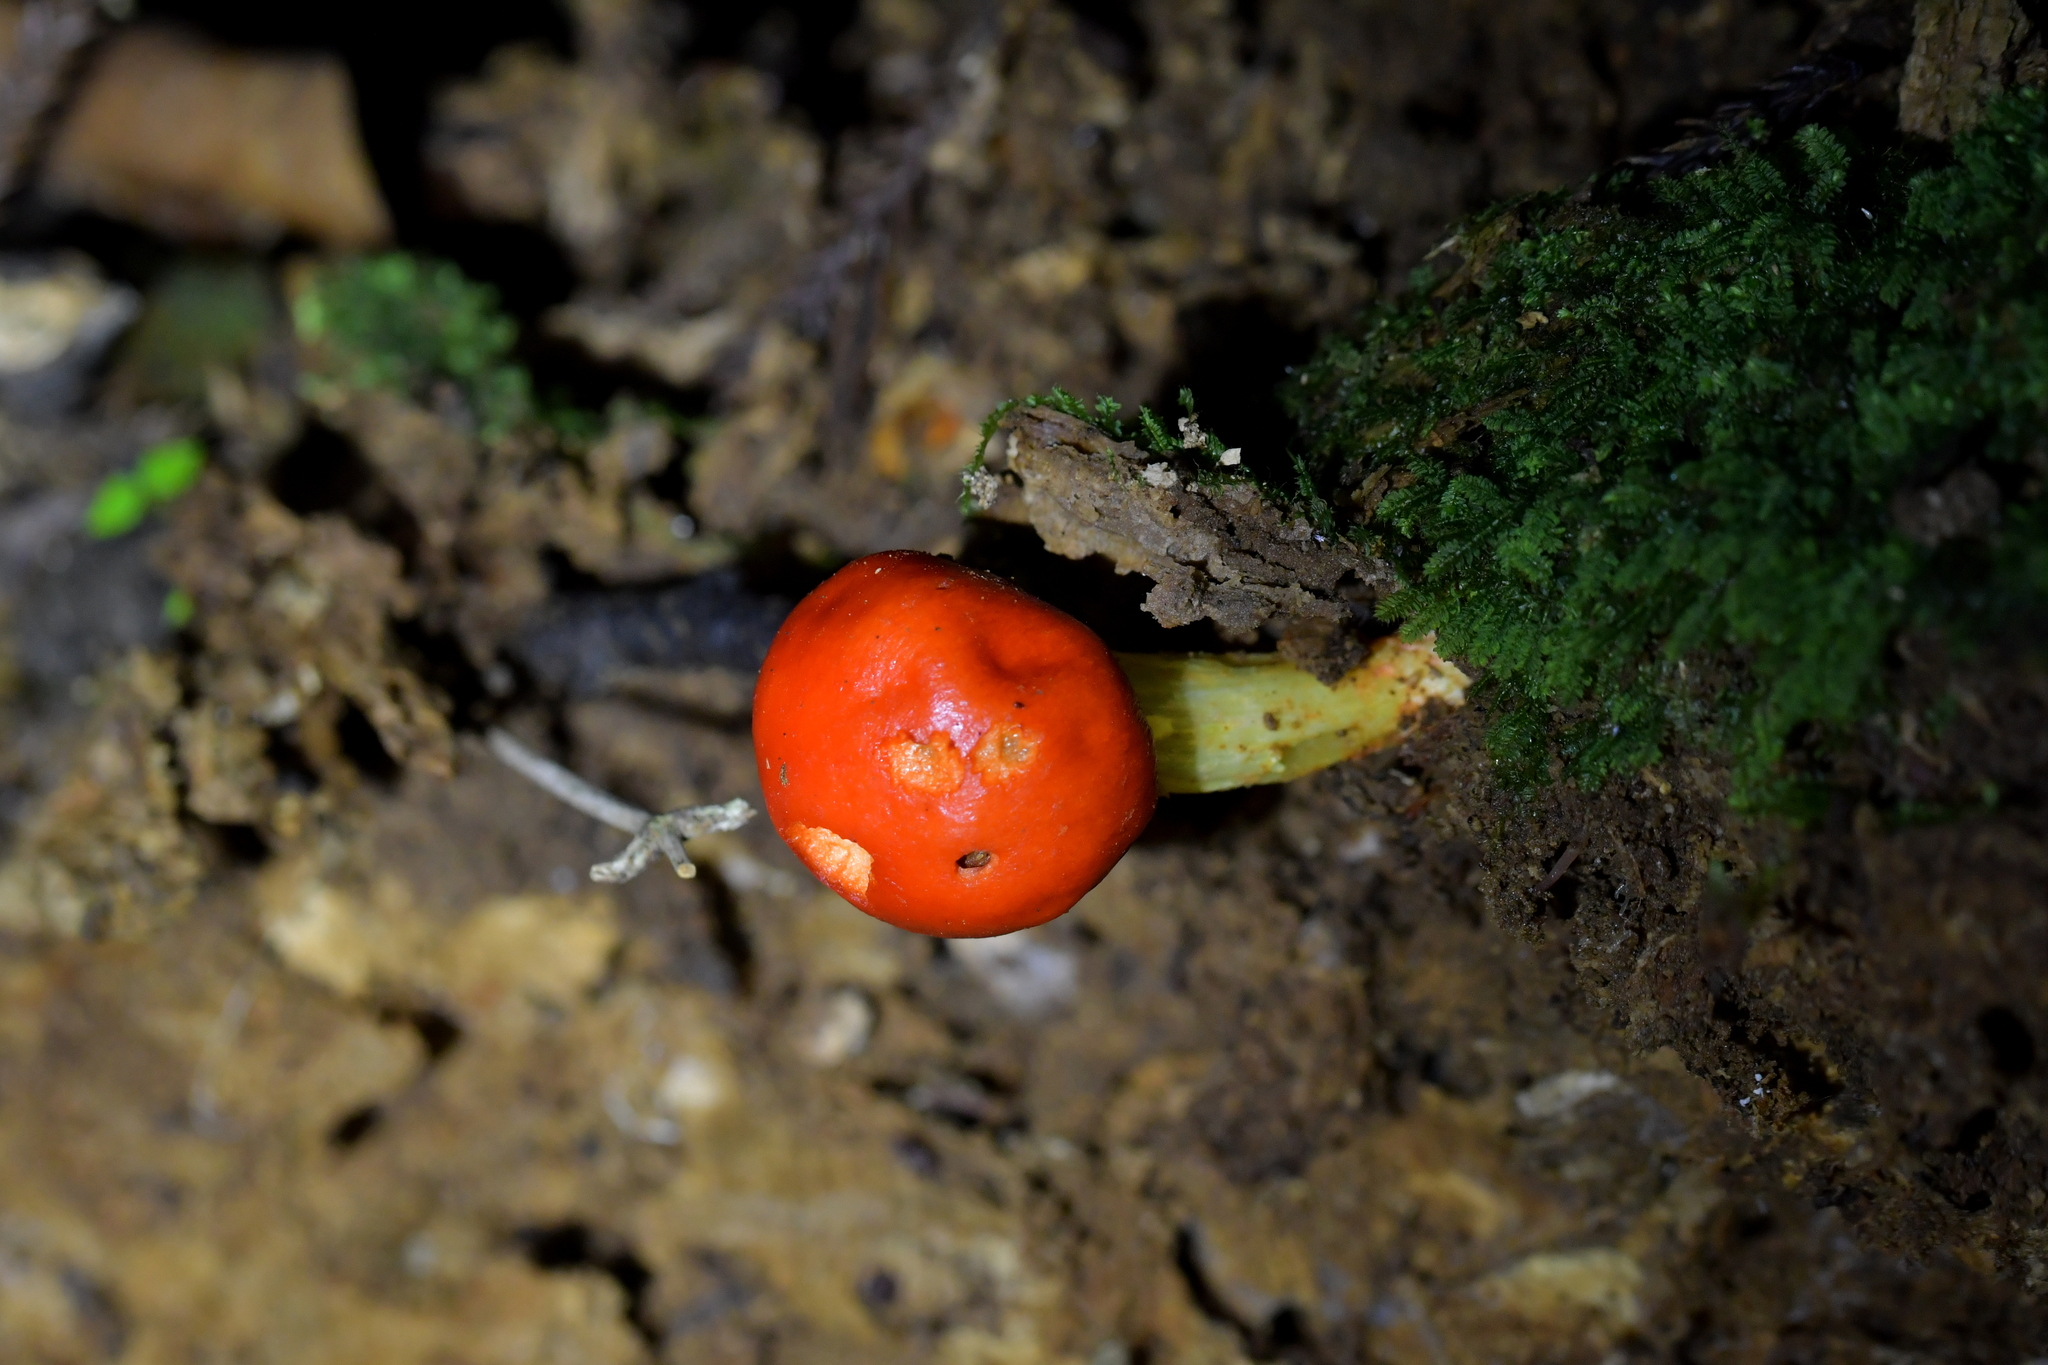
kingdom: Fungi
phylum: Basidiomycota
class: Agaricomycetes
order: Agaricales
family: Strophariaceae
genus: Leratiomyces
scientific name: Leratiomyces erythrocephalus
